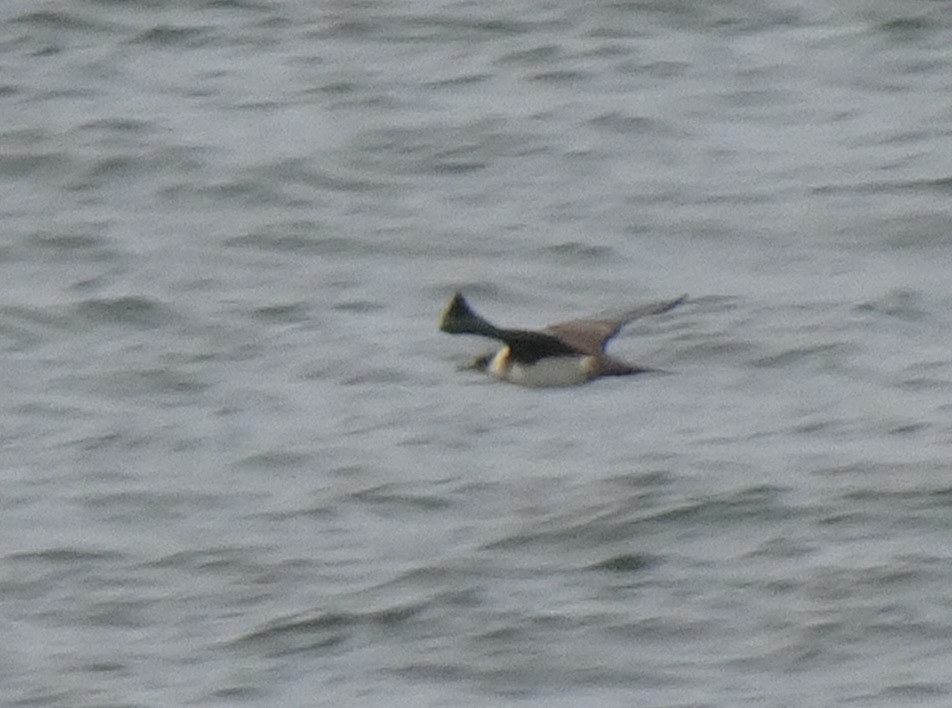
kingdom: Animalia
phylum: Chordata
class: Aves
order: Charadriiformes
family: Stercorariidae
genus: Stercorarius
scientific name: Stercorarius parasiticus
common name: Parasitic jaeger
